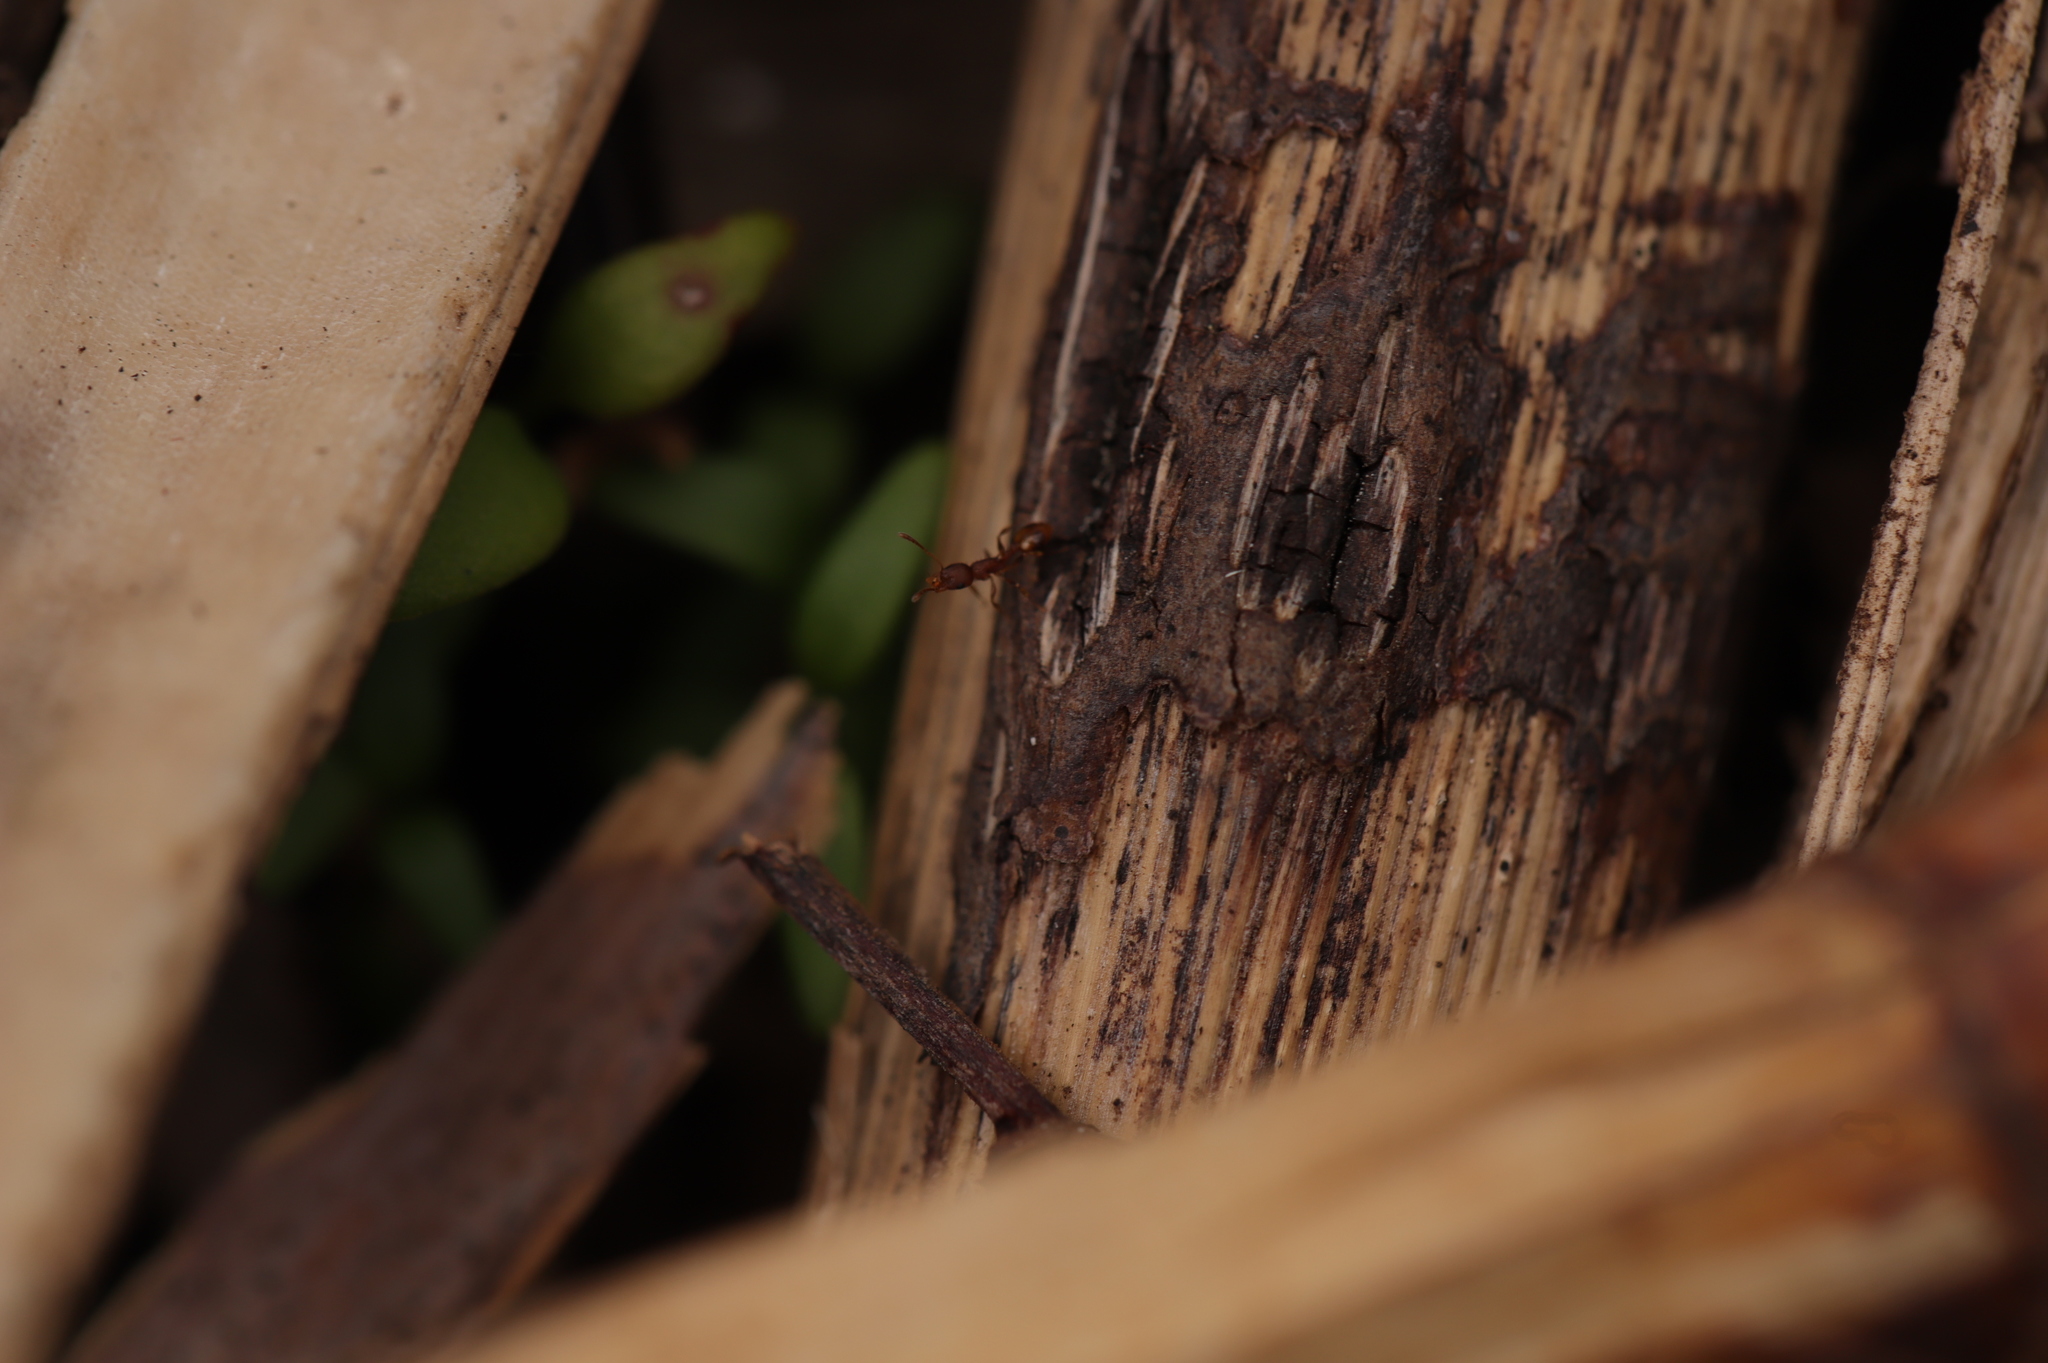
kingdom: Animalia
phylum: Arthropoda
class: Insecta
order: Hymenoptera
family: Formicidae
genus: Temnothorax
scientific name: Temnothorax curvispinosus
